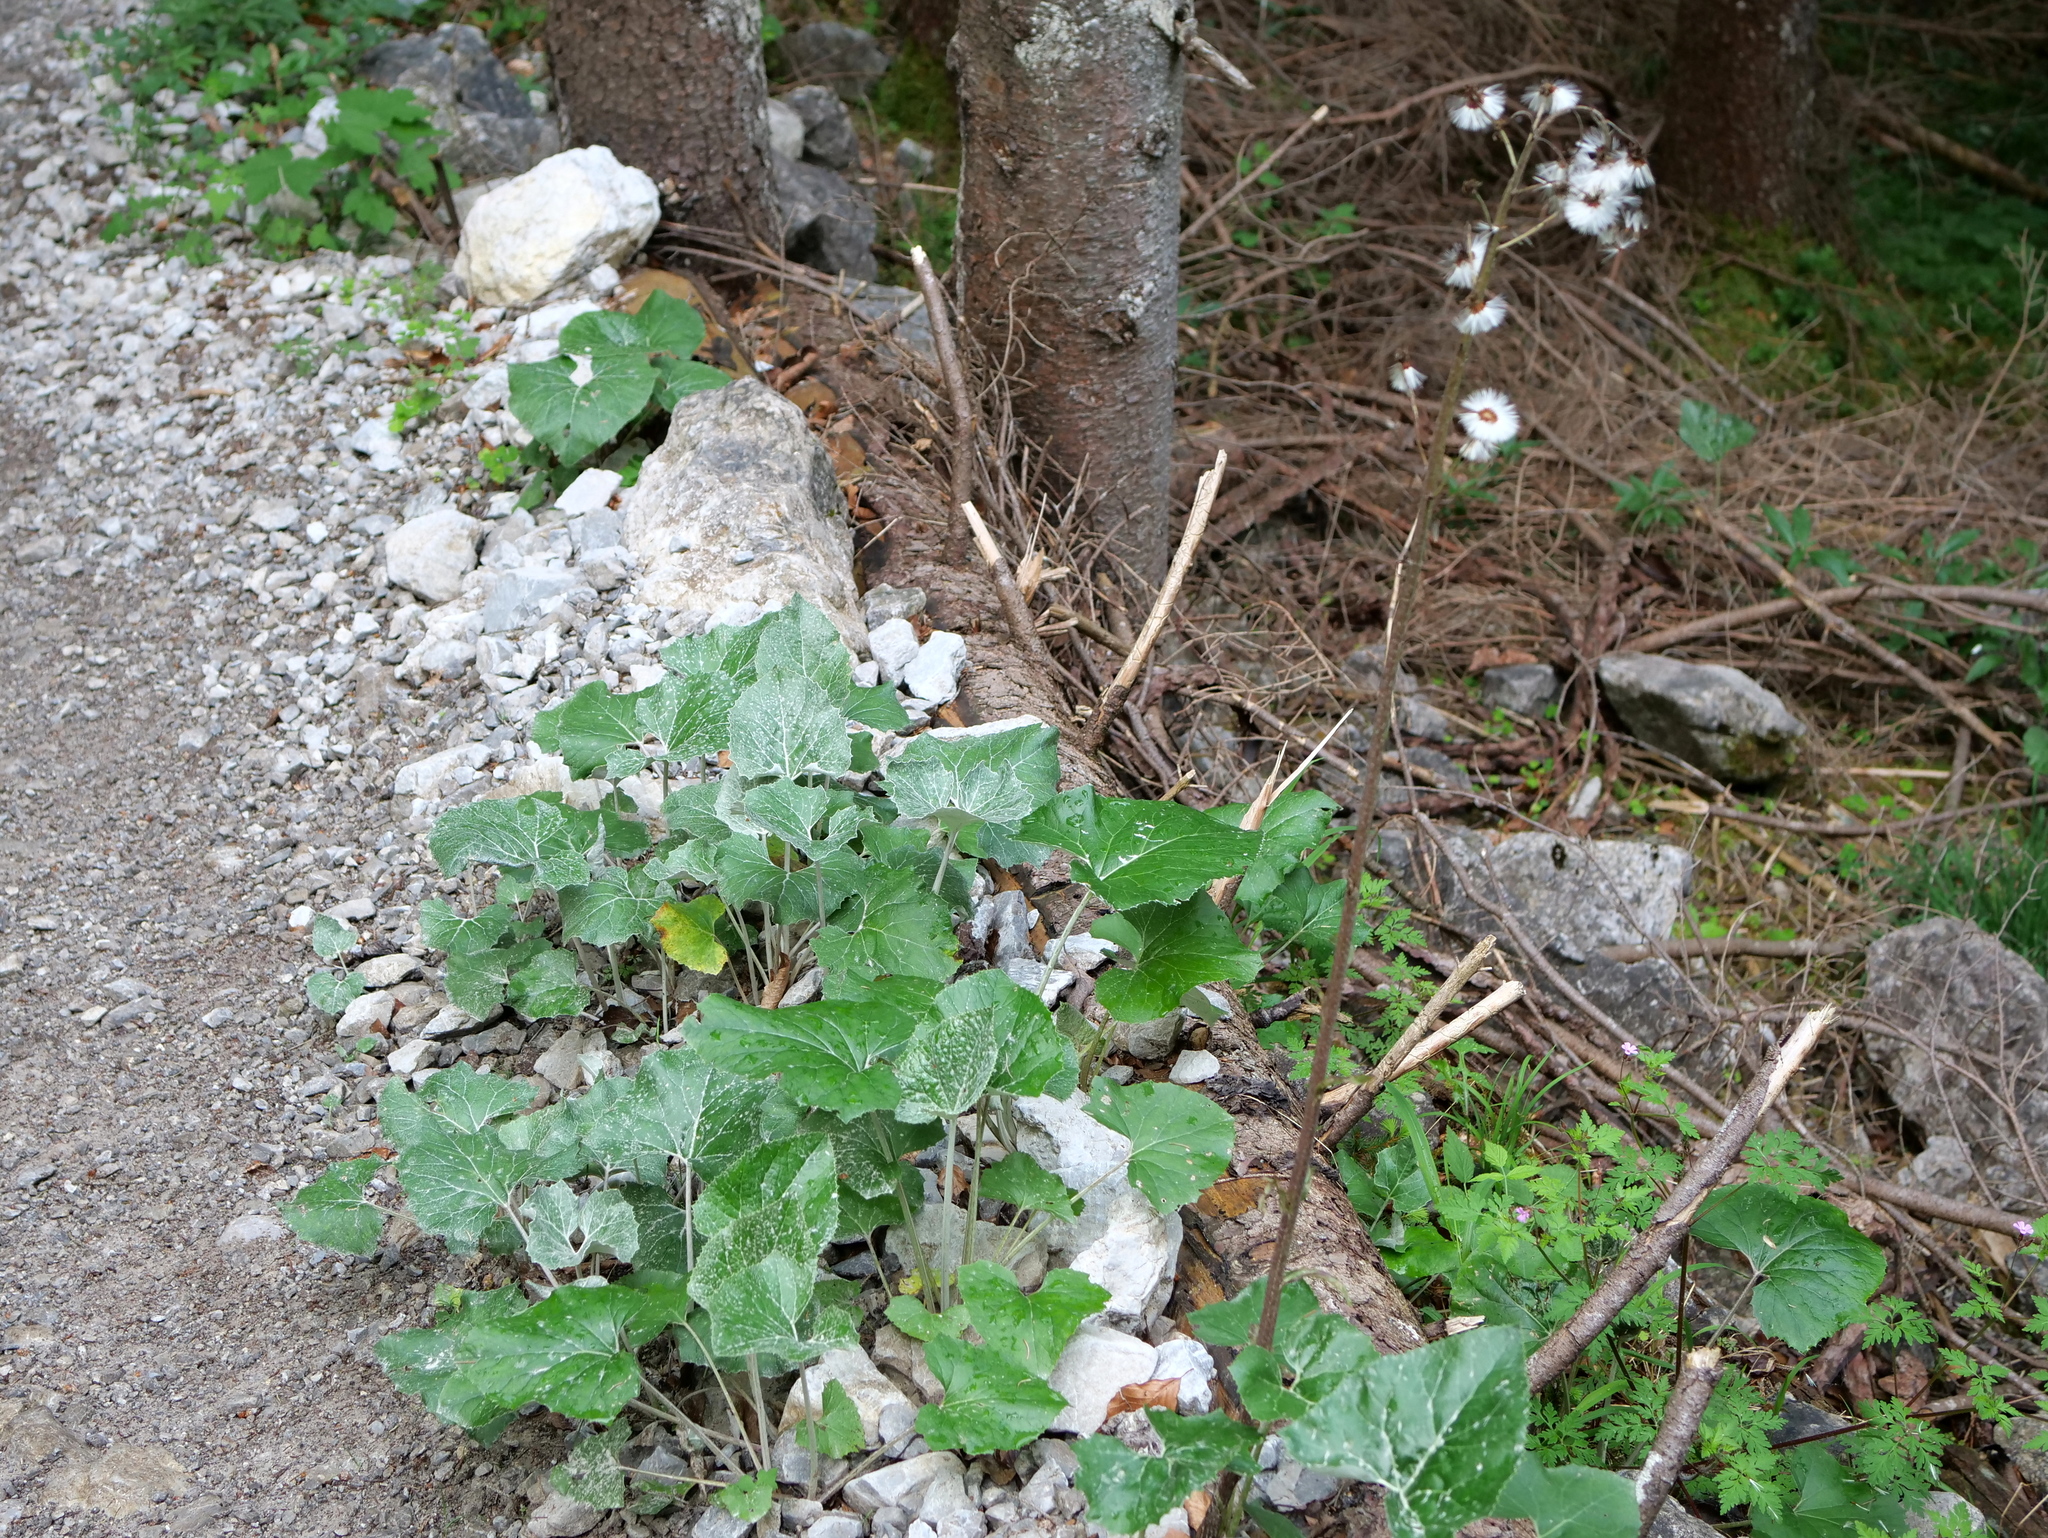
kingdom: Plantae
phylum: Tracheophyta
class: Magnoliopsida
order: Asterales
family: Asteraceae
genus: Petasites
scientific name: Petasites paradoxus
